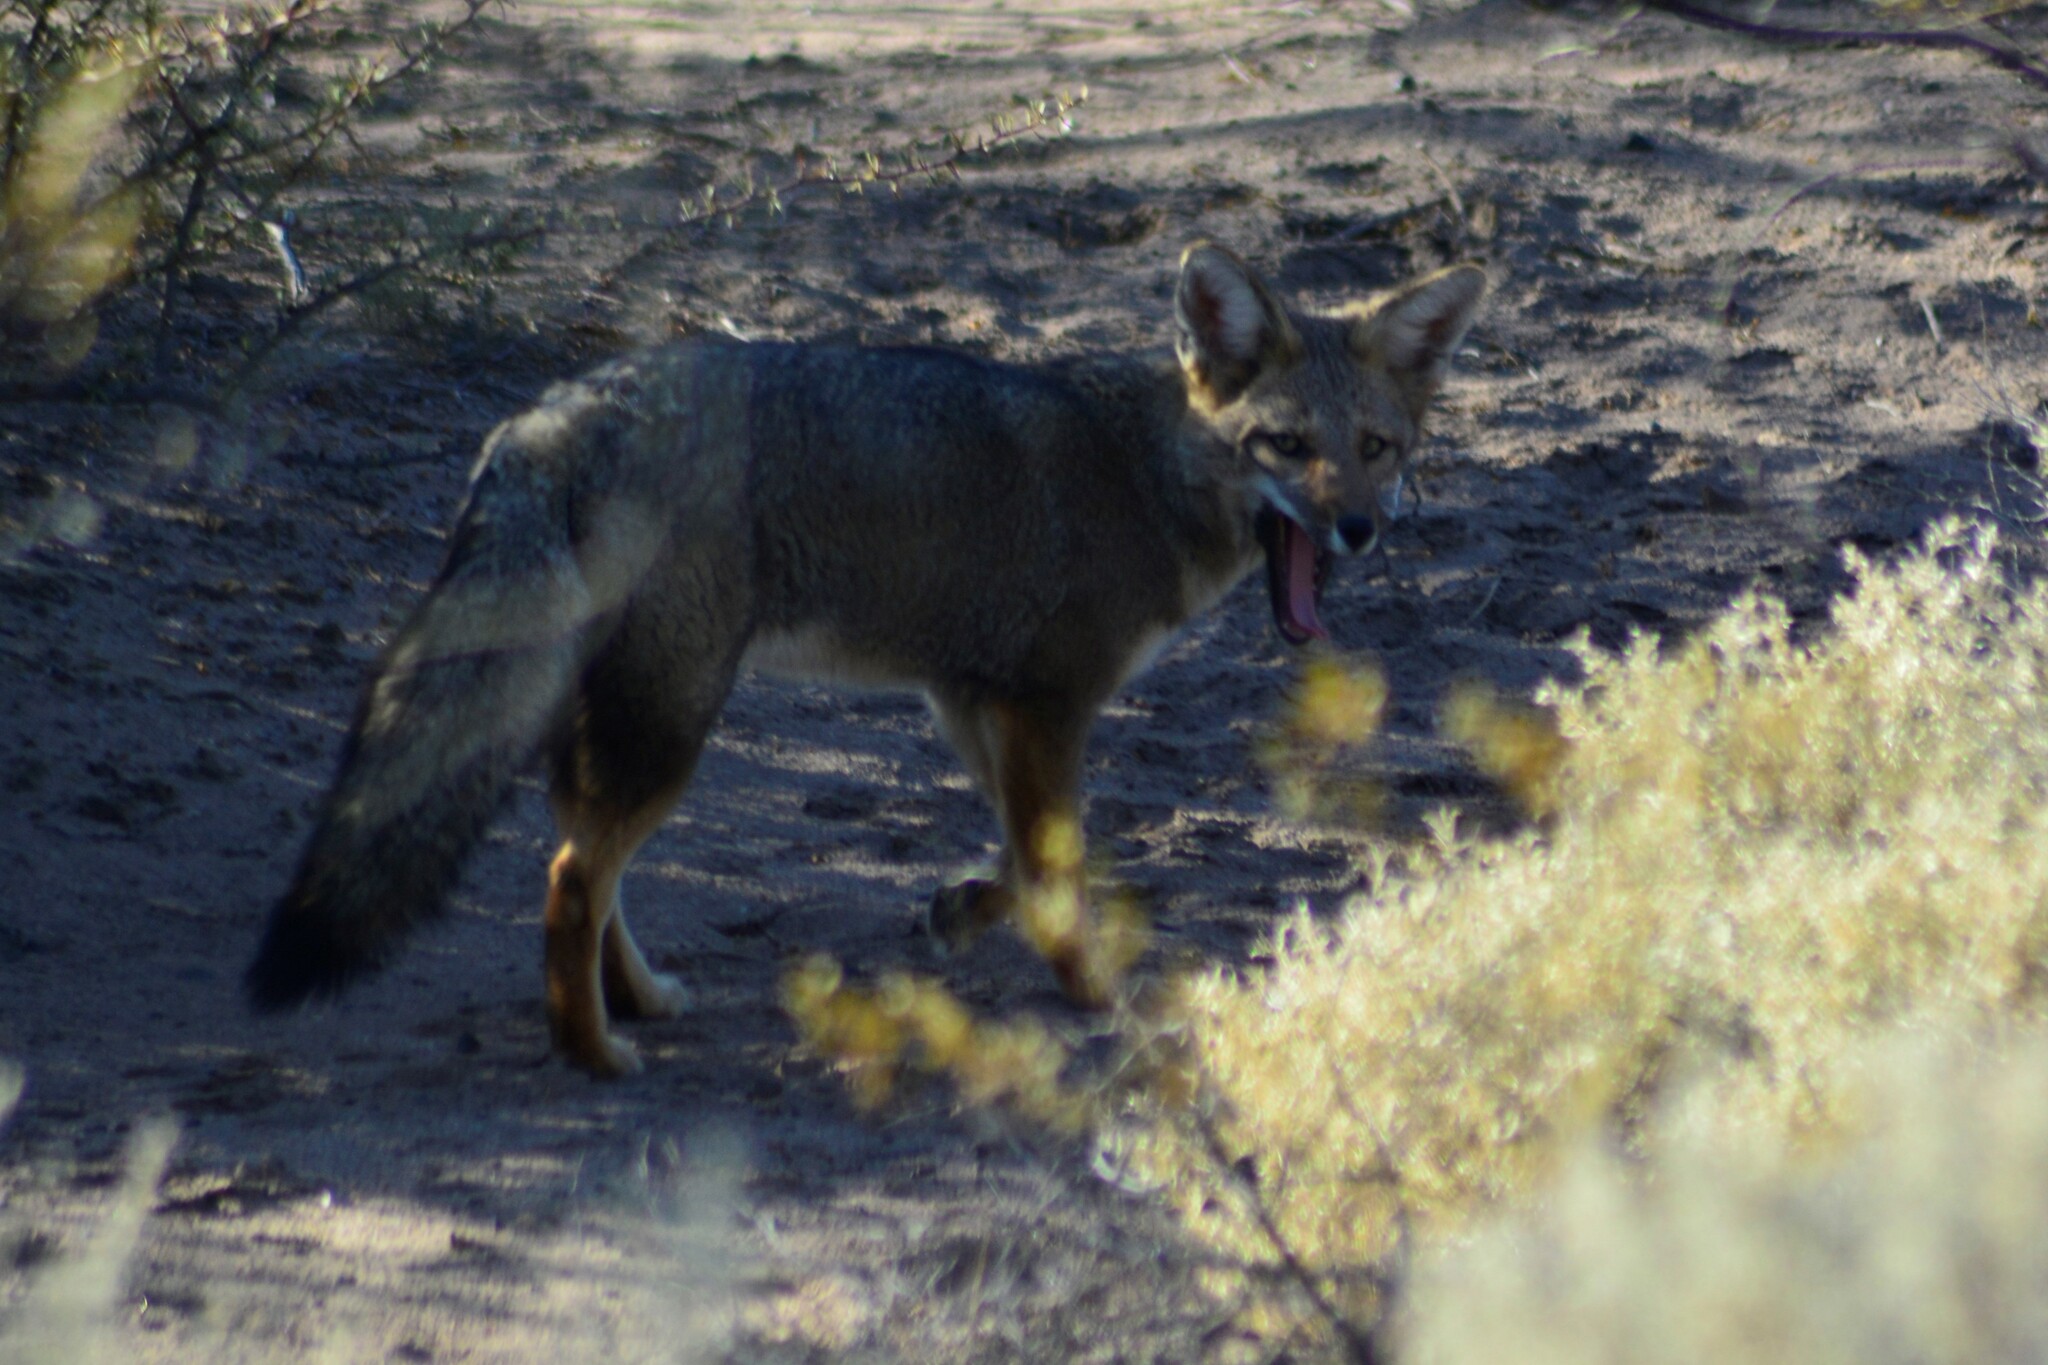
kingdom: Animalia
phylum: Chordata
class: Mammalia
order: Carnivora
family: Canidae
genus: Lycalopex
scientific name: Lycalopex gymnocercus
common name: Pampas fox
